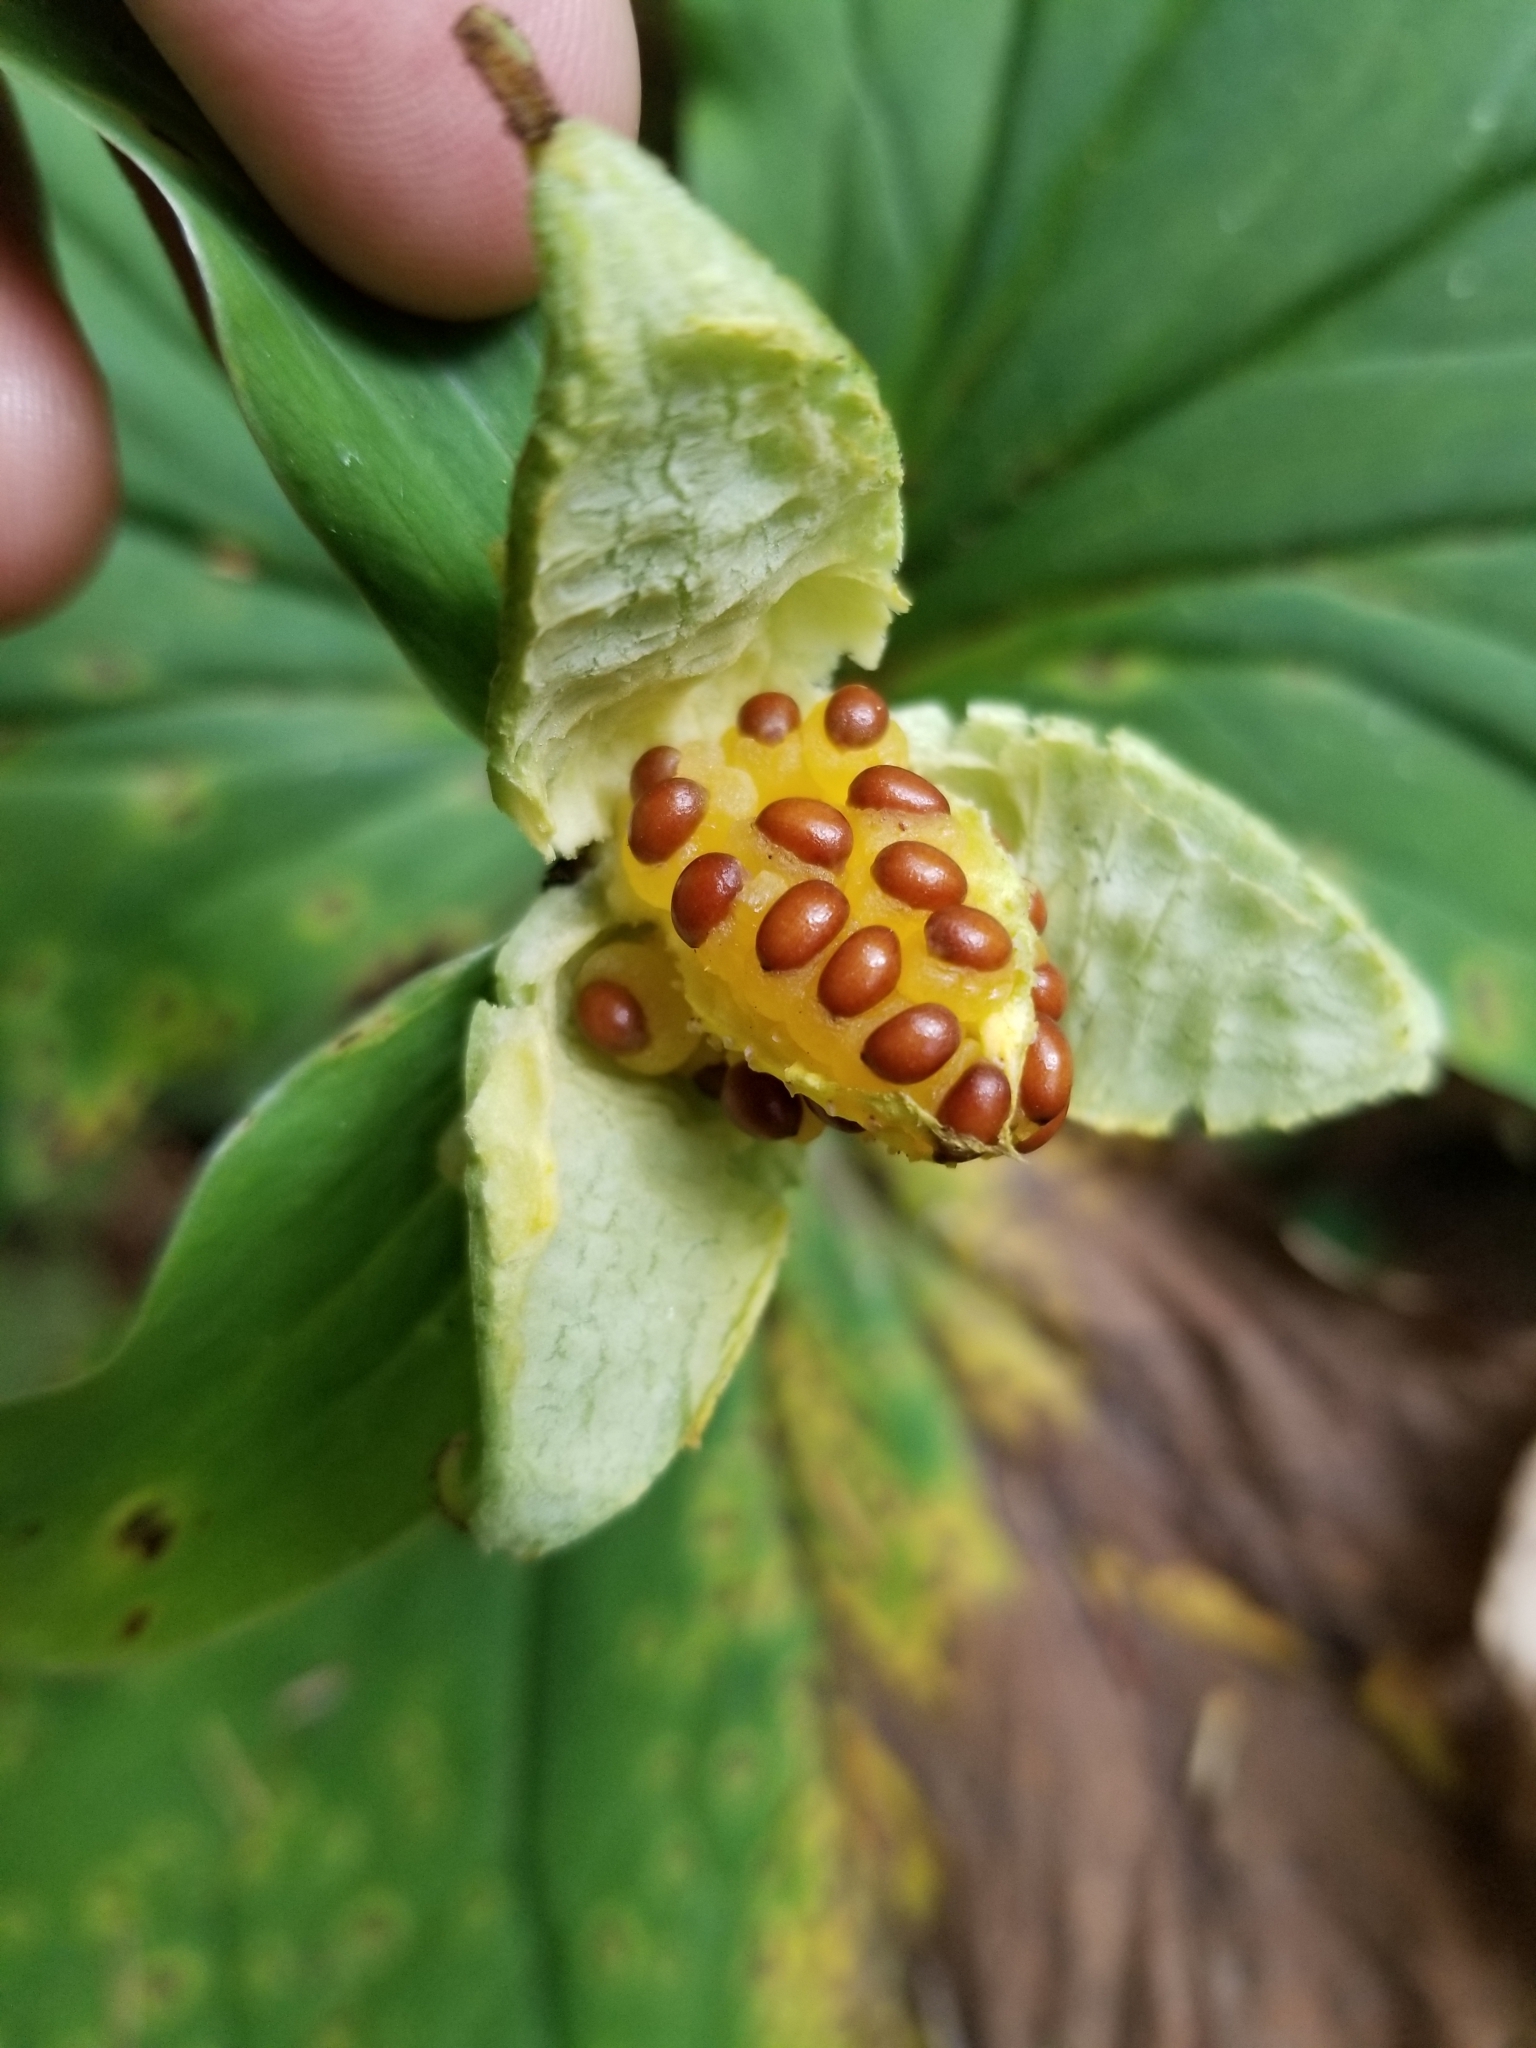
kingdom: Plantae
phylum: Tracheophyta
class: Liliopsida
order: Liliales
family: Melanthiaceae
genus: Trillium
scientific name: Trillium ovatum
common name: Pacific trillium
